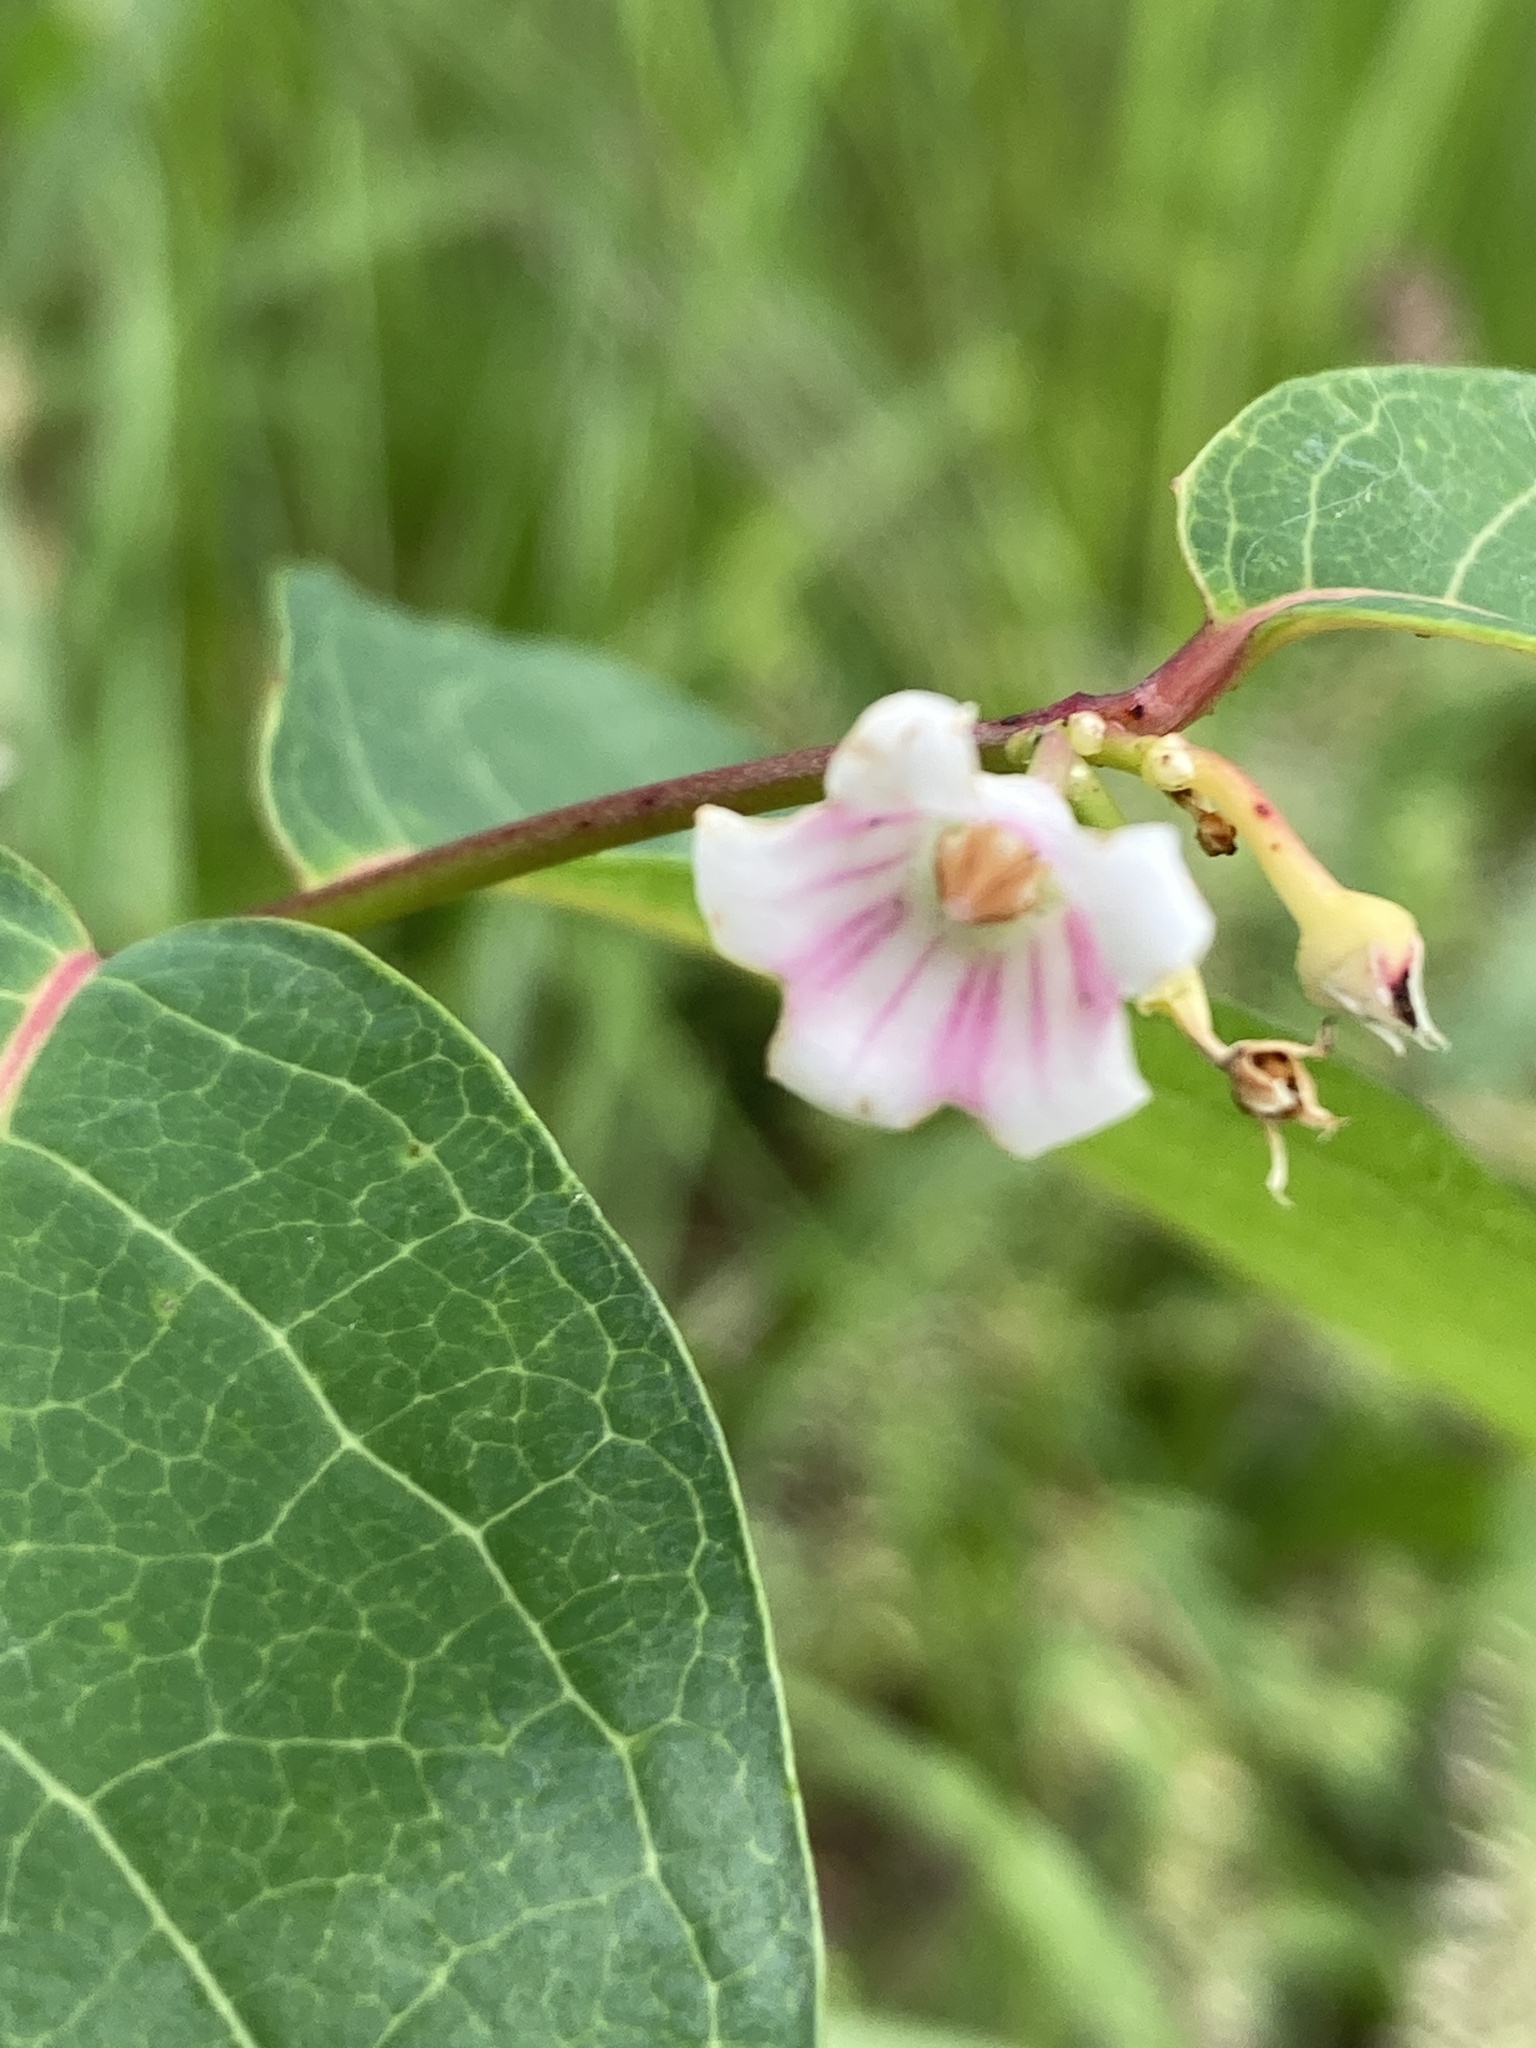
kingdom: Plantae
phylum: Tracheophyta
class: Magnoliopsida
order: Gentianales
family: Apocynaceae
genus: Apocynum
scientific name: Apocynum androsaemifolium
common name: Spreading dogbane
